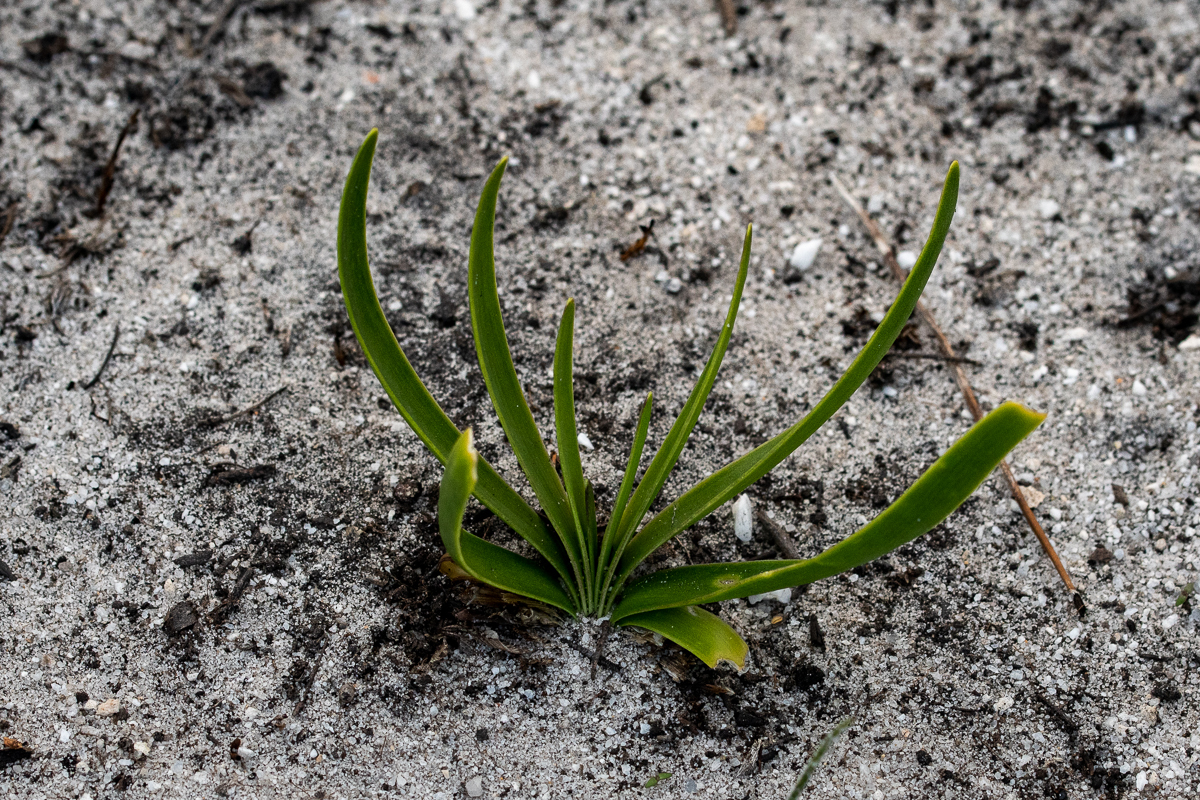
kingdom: Plantae
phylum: Tracheophyta
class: Liliopsida
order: Asparagales
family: Amaryllidaceae
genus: Agapanthus
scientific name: Agapanthus africanus
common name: Lily-of-the-nile
